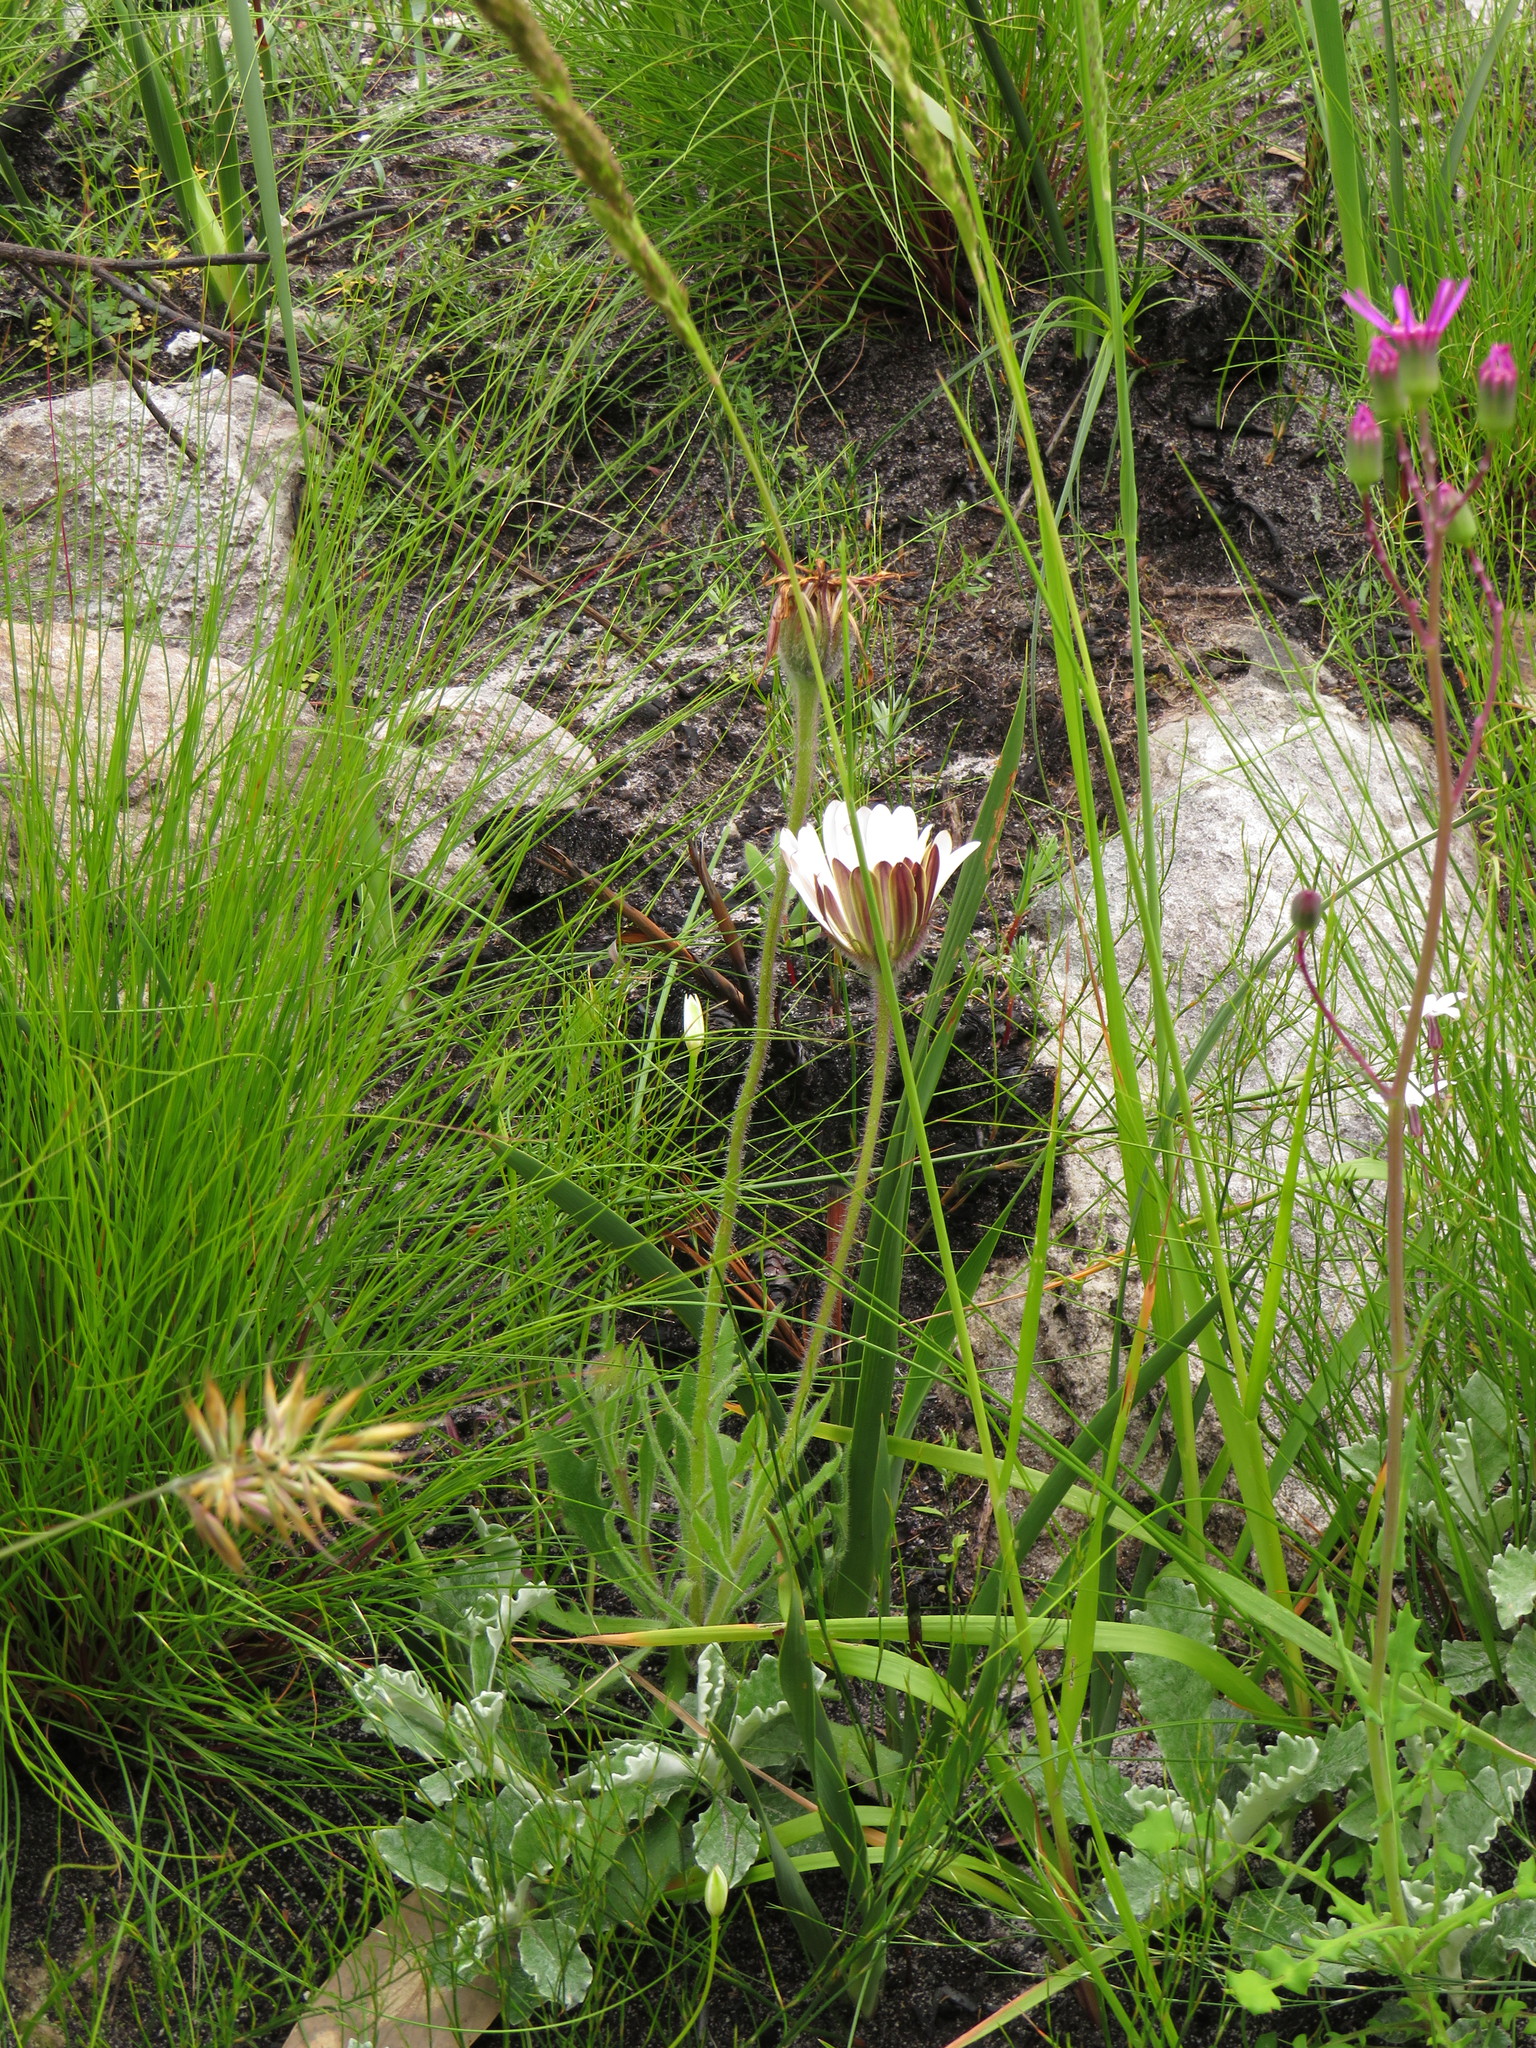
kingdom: Plantae
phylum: Tracheophyta
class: Magnoliopsida
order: Asterales
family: Asteraceae
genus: Dimorphotheca
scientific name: Dimorphotheca nudicaulis
